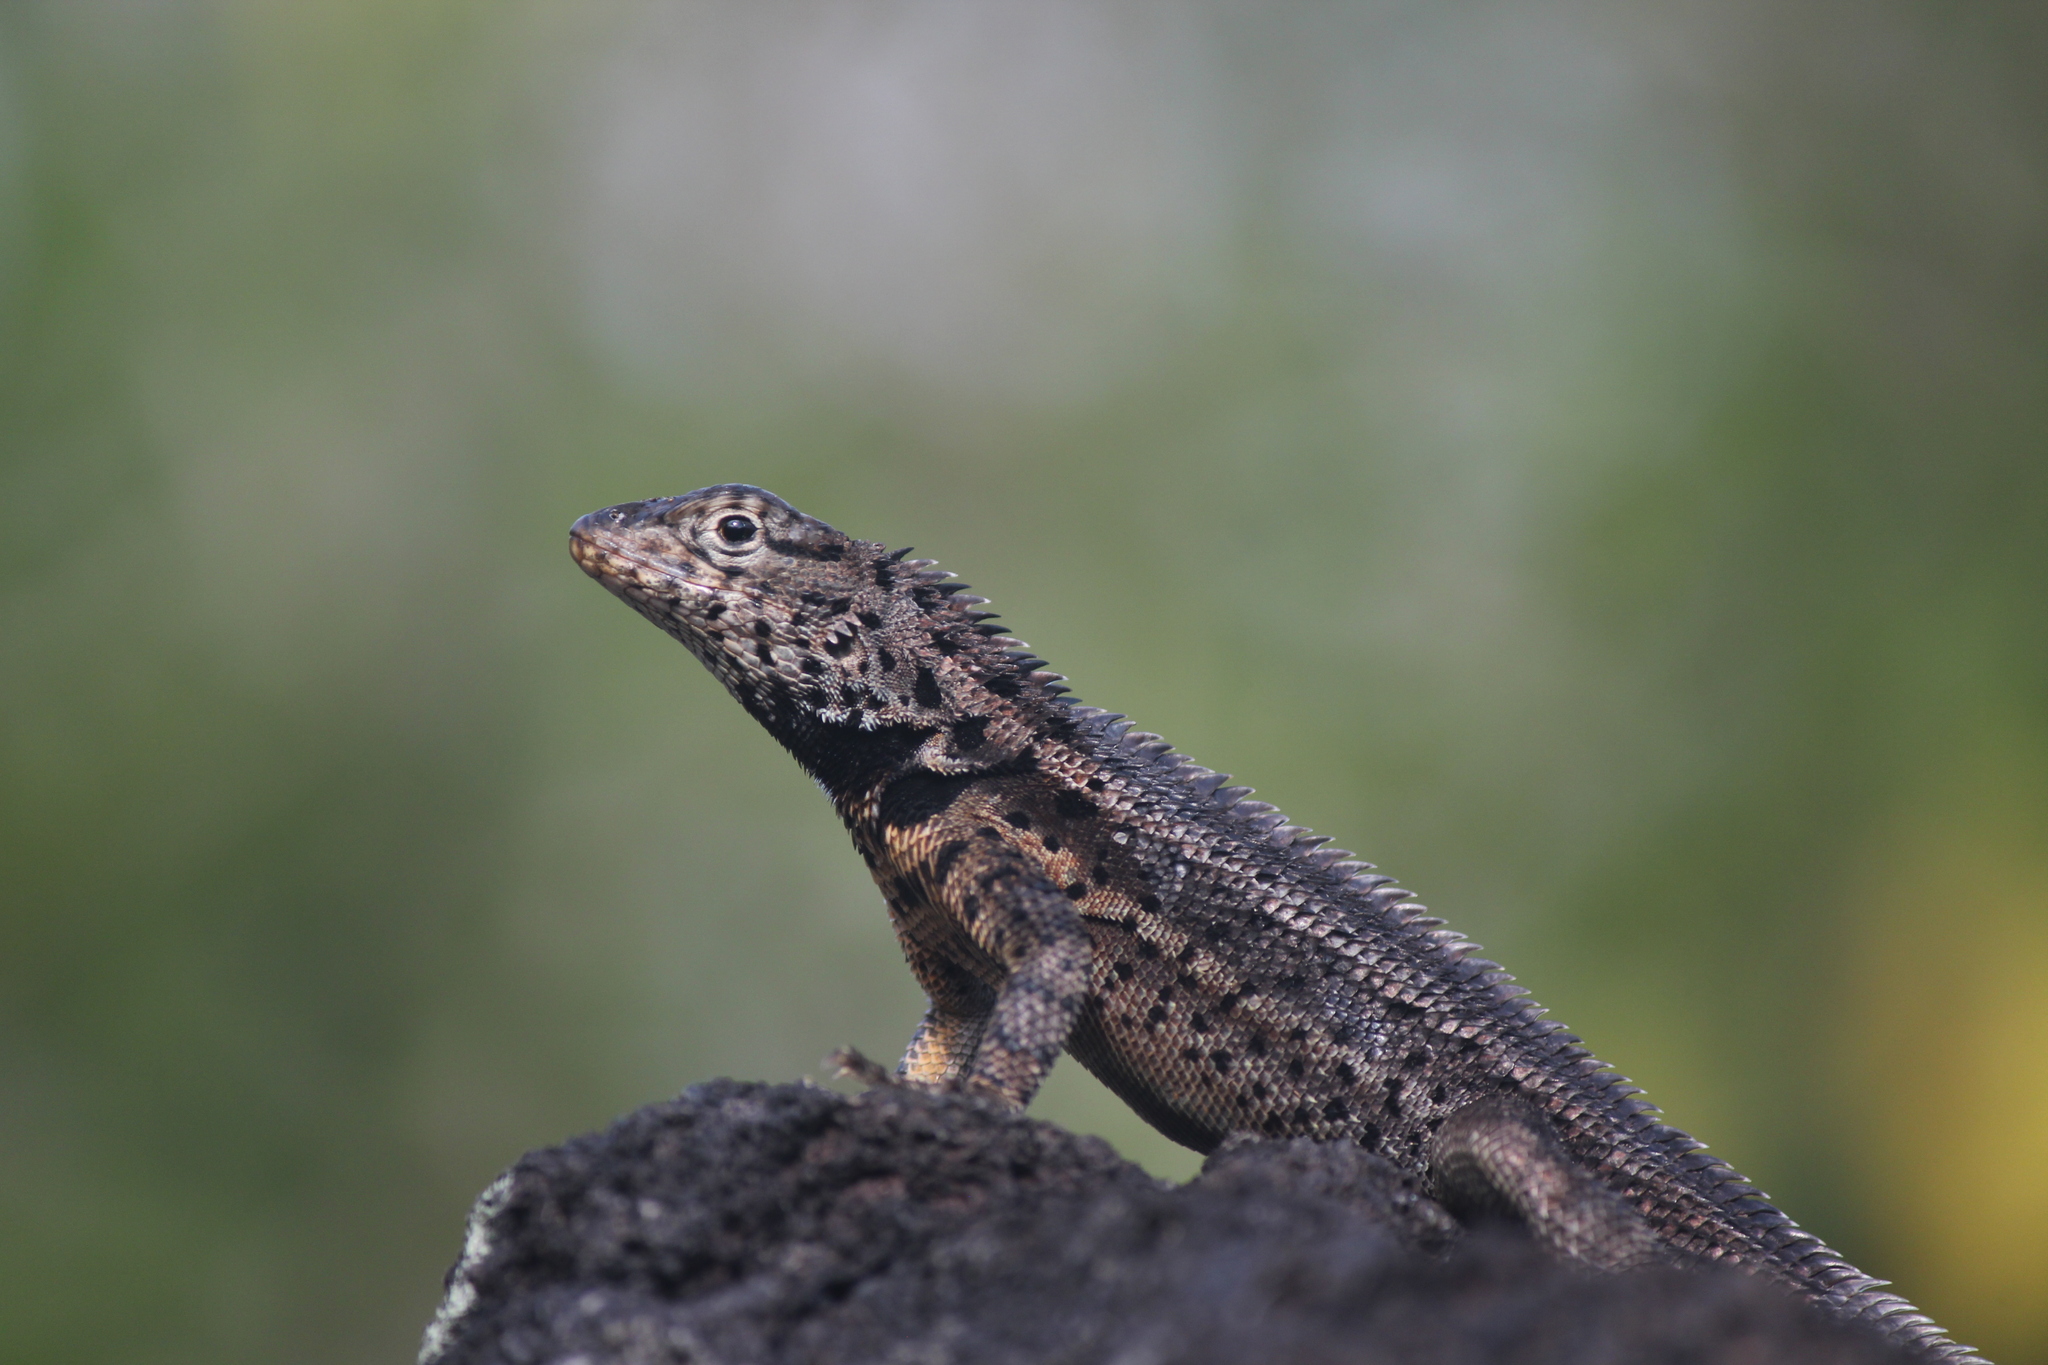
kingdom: Animalia
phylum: Chordata
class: Squamata
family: Tropiduridae
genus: Microlophus
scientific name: Microlophus albemarlensis
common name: Galapagos lava lizard
